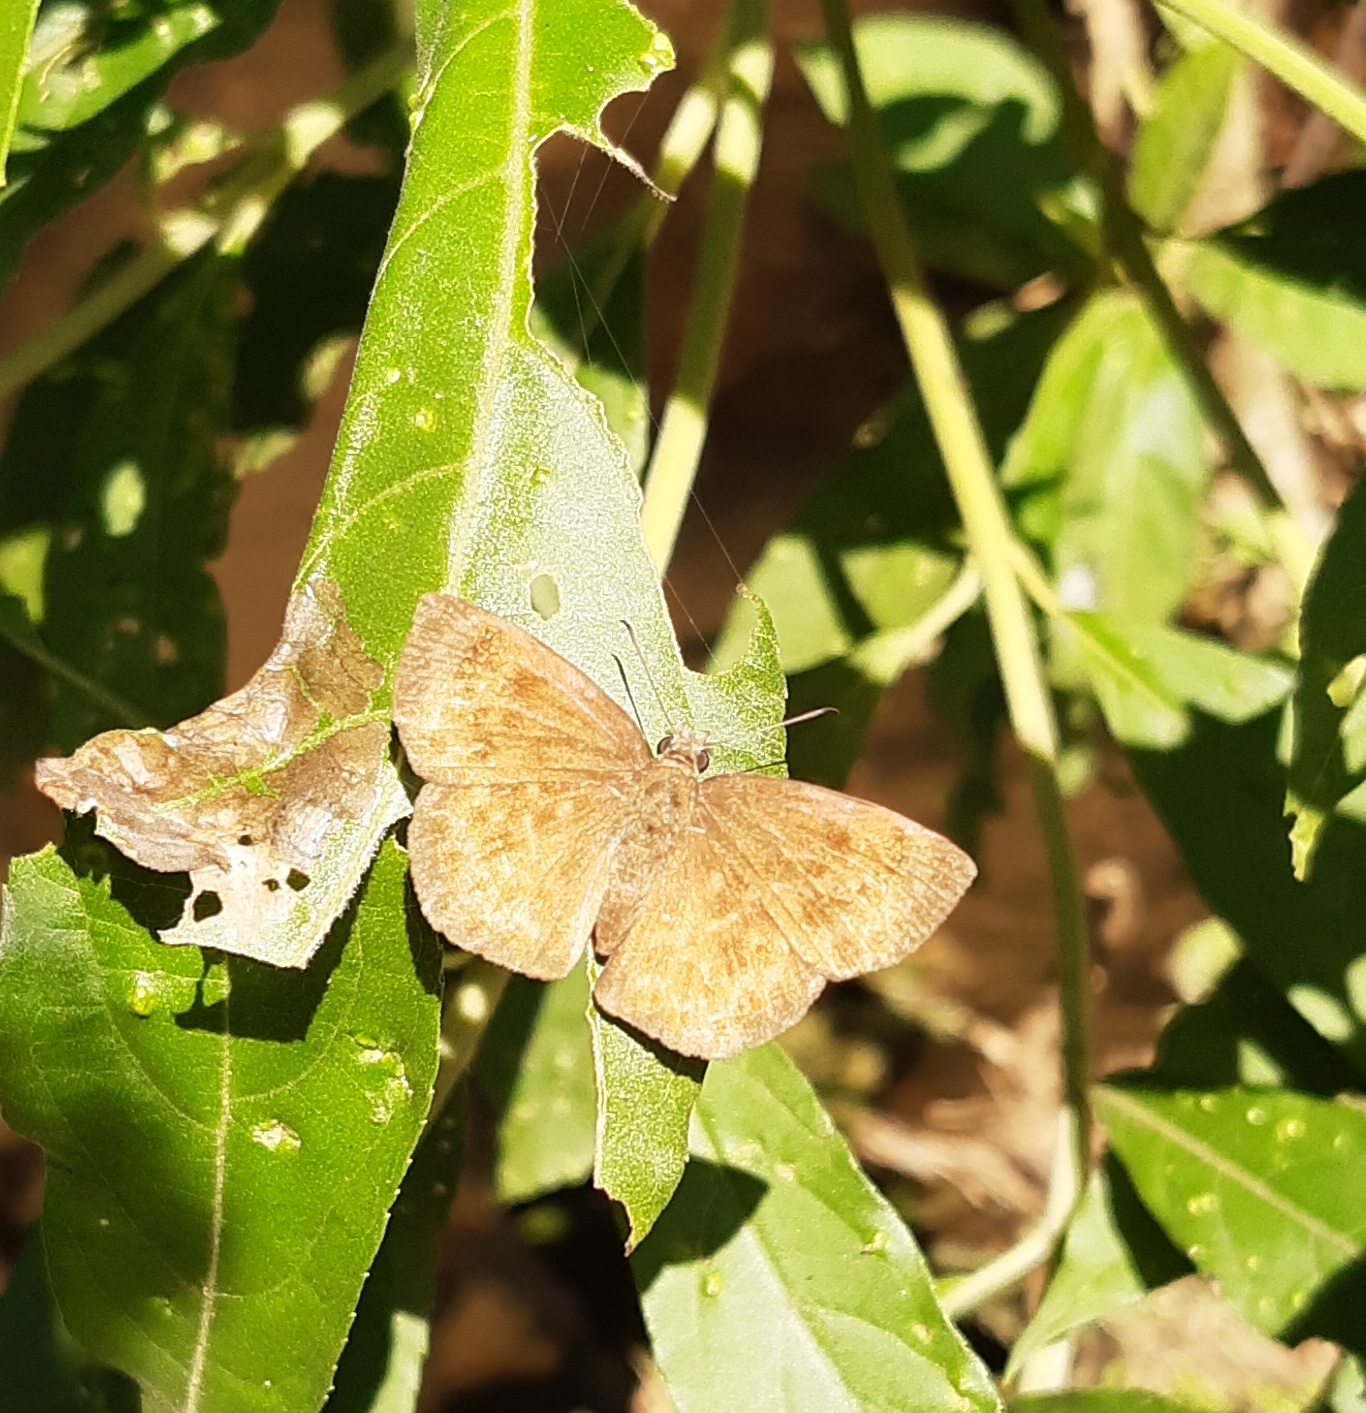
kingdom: Animalia
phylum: Arthropoda
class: Insecta
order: Lepidoptera
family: Hesperiidae
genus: Bolla
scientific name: Bolla catharina
